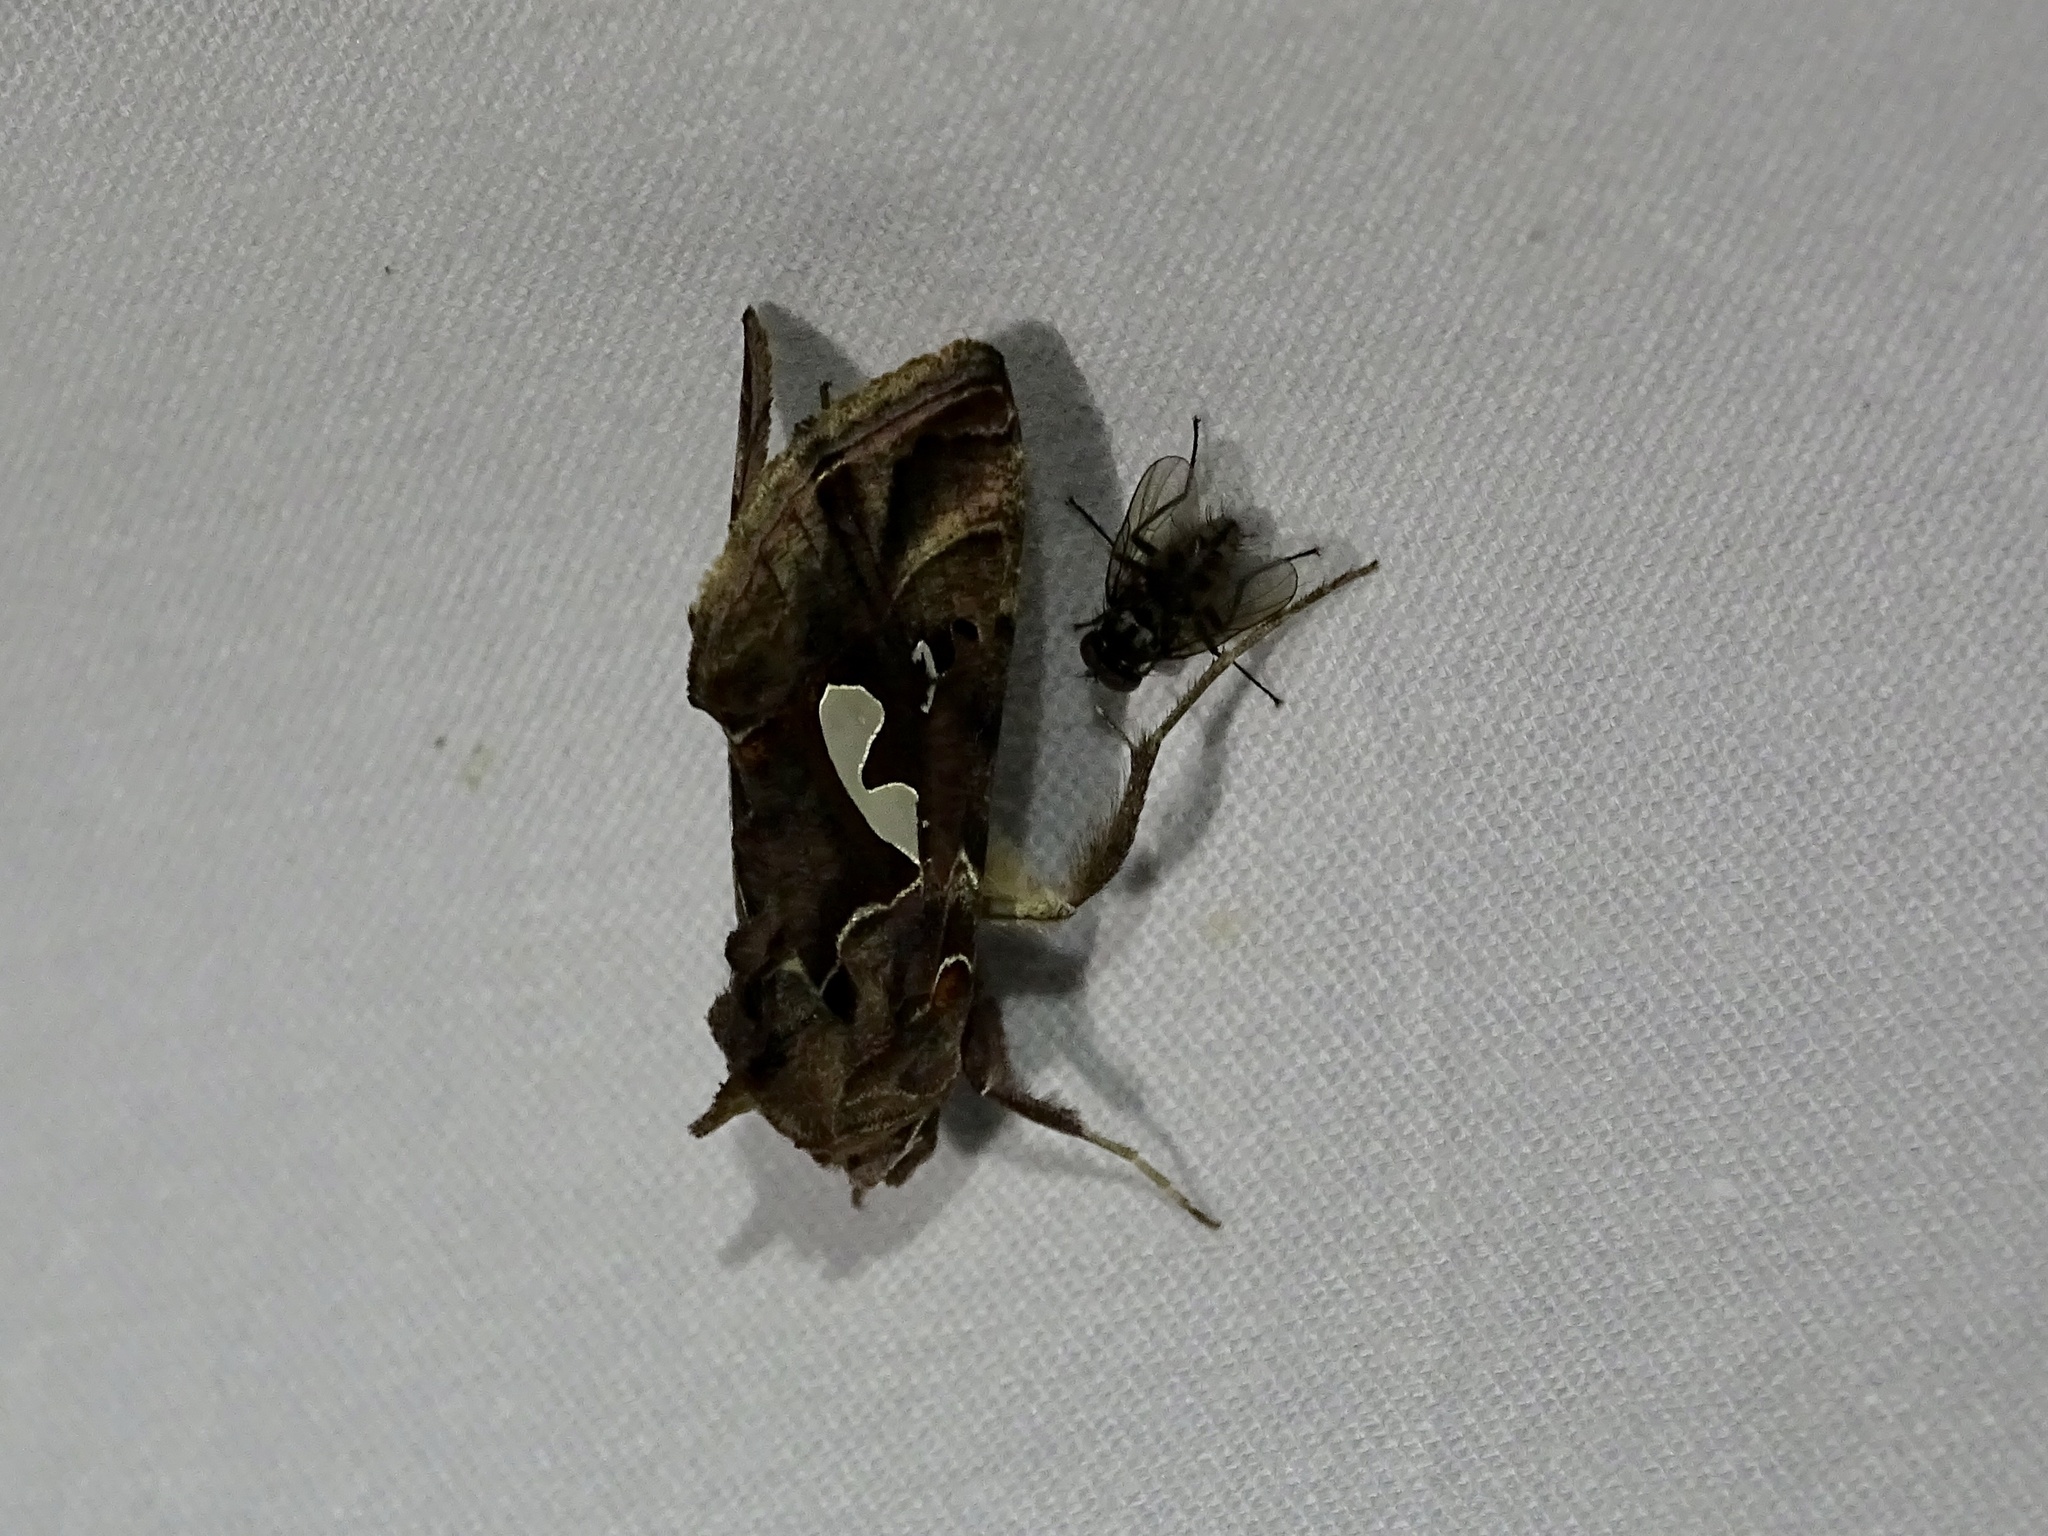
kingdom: Animalia
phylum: Arthropoda
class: Insecta
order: Lepidoptera
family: Noctuidae
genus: Megalographa
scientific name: Megalographa biloba
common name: Cutworm
